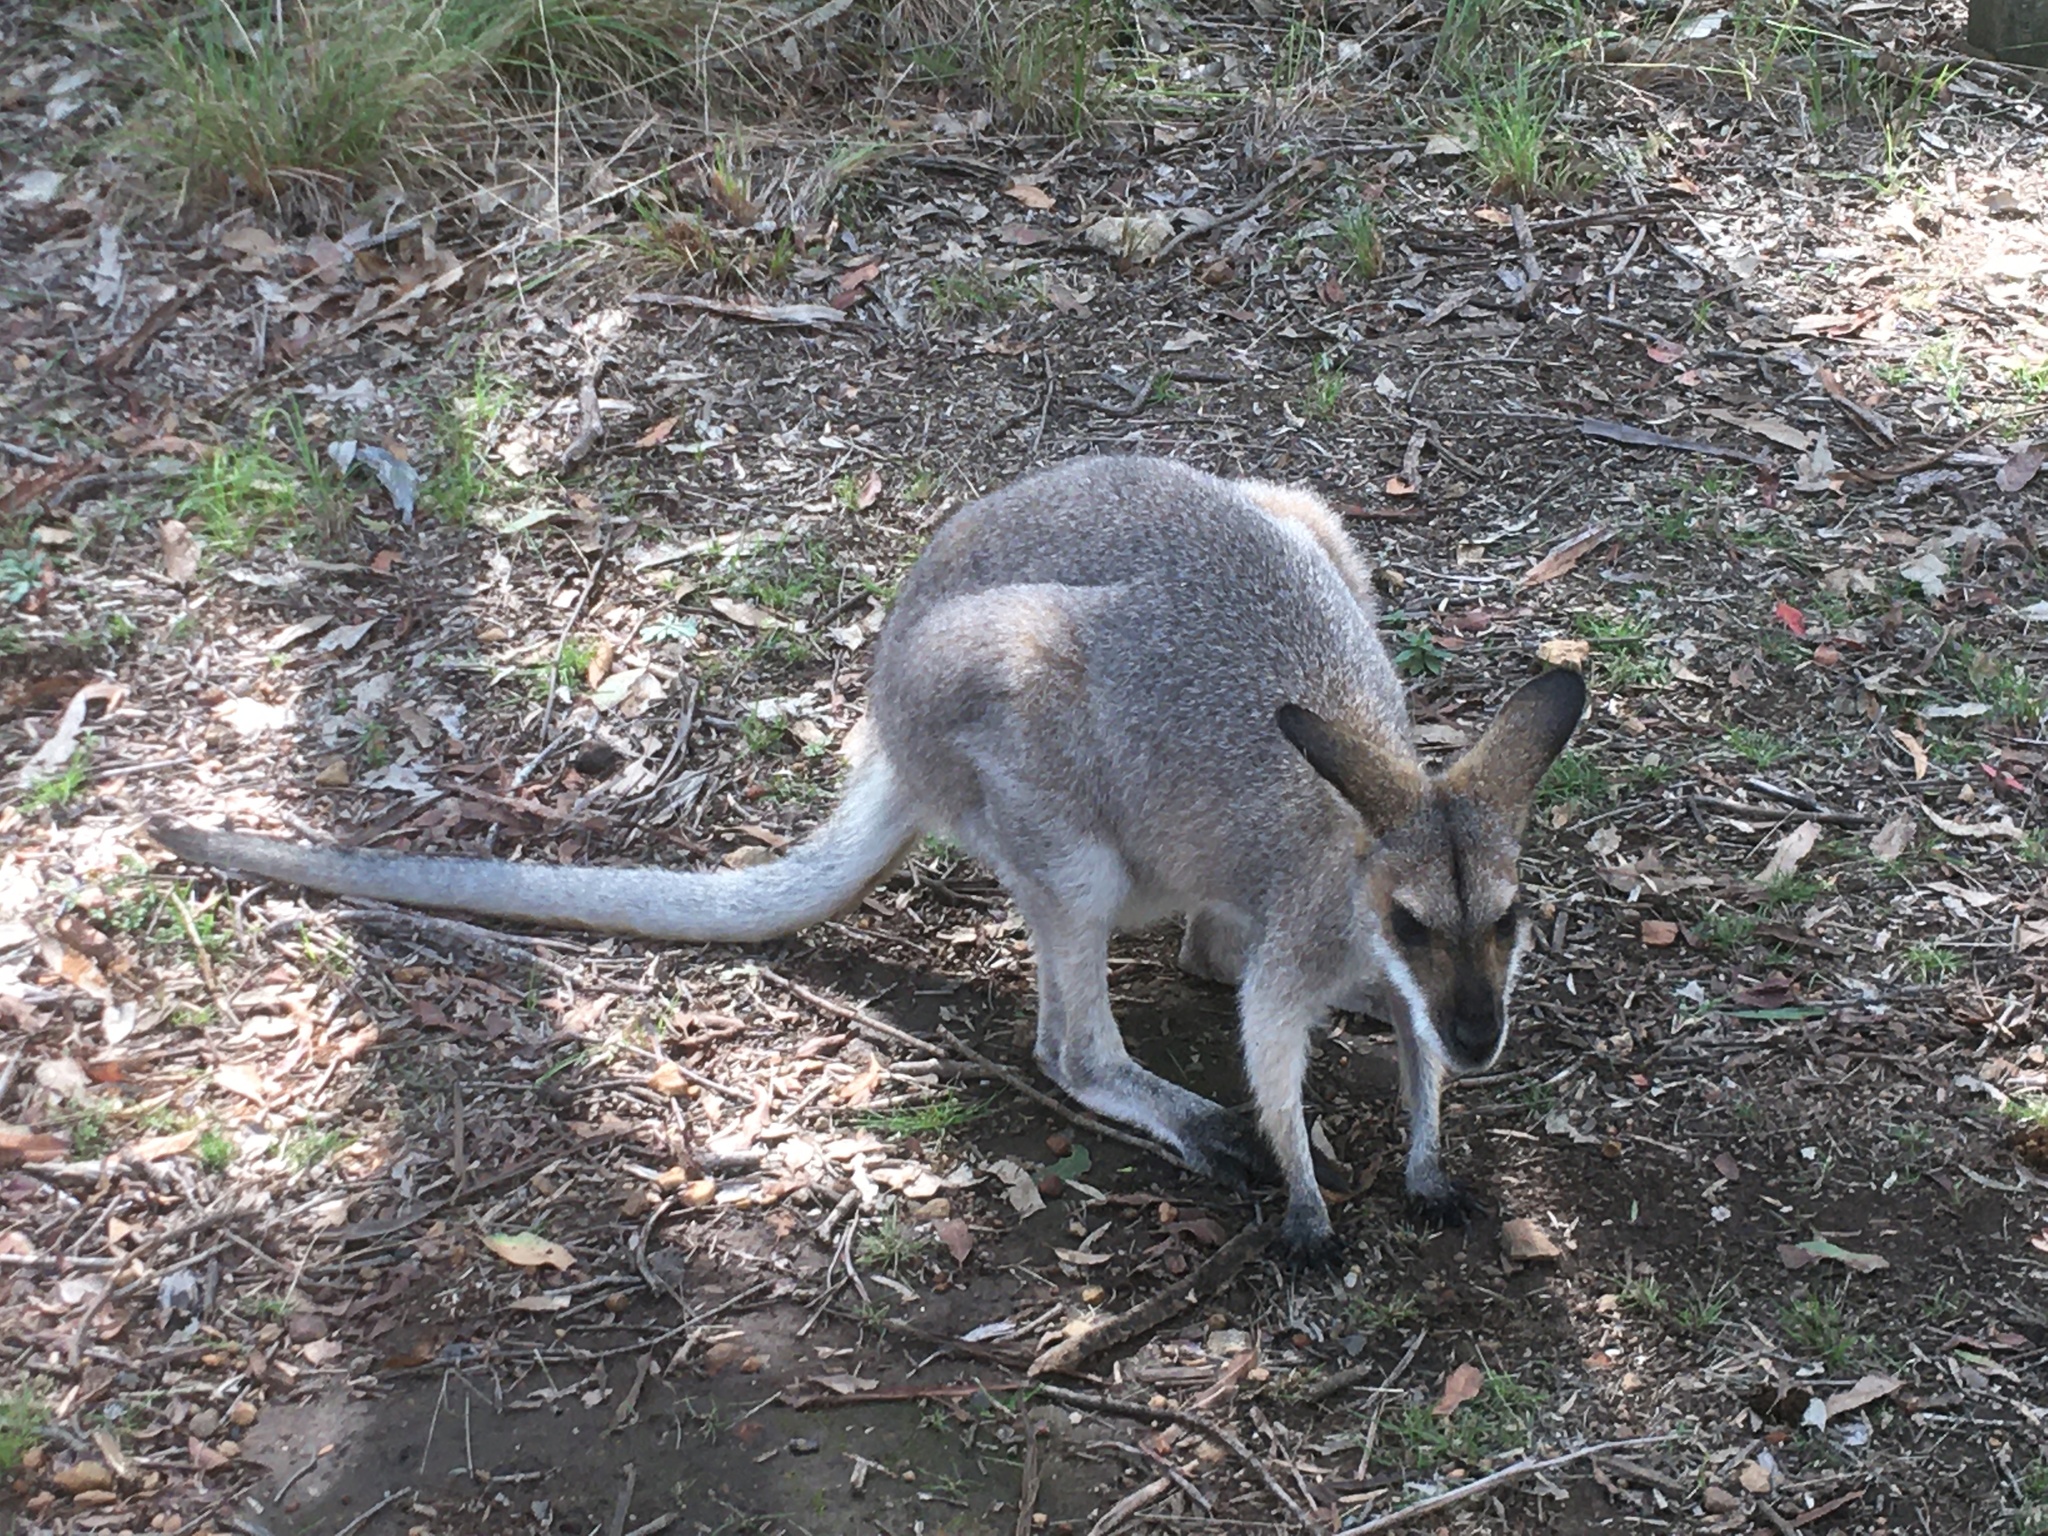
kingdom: Animalia
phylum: Chordata
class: Mammalia
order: Diprotodontia
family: Macropodidae
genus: Notamacropus
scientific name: Notamacropus rufogriseus
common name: Red-necked wallaby
